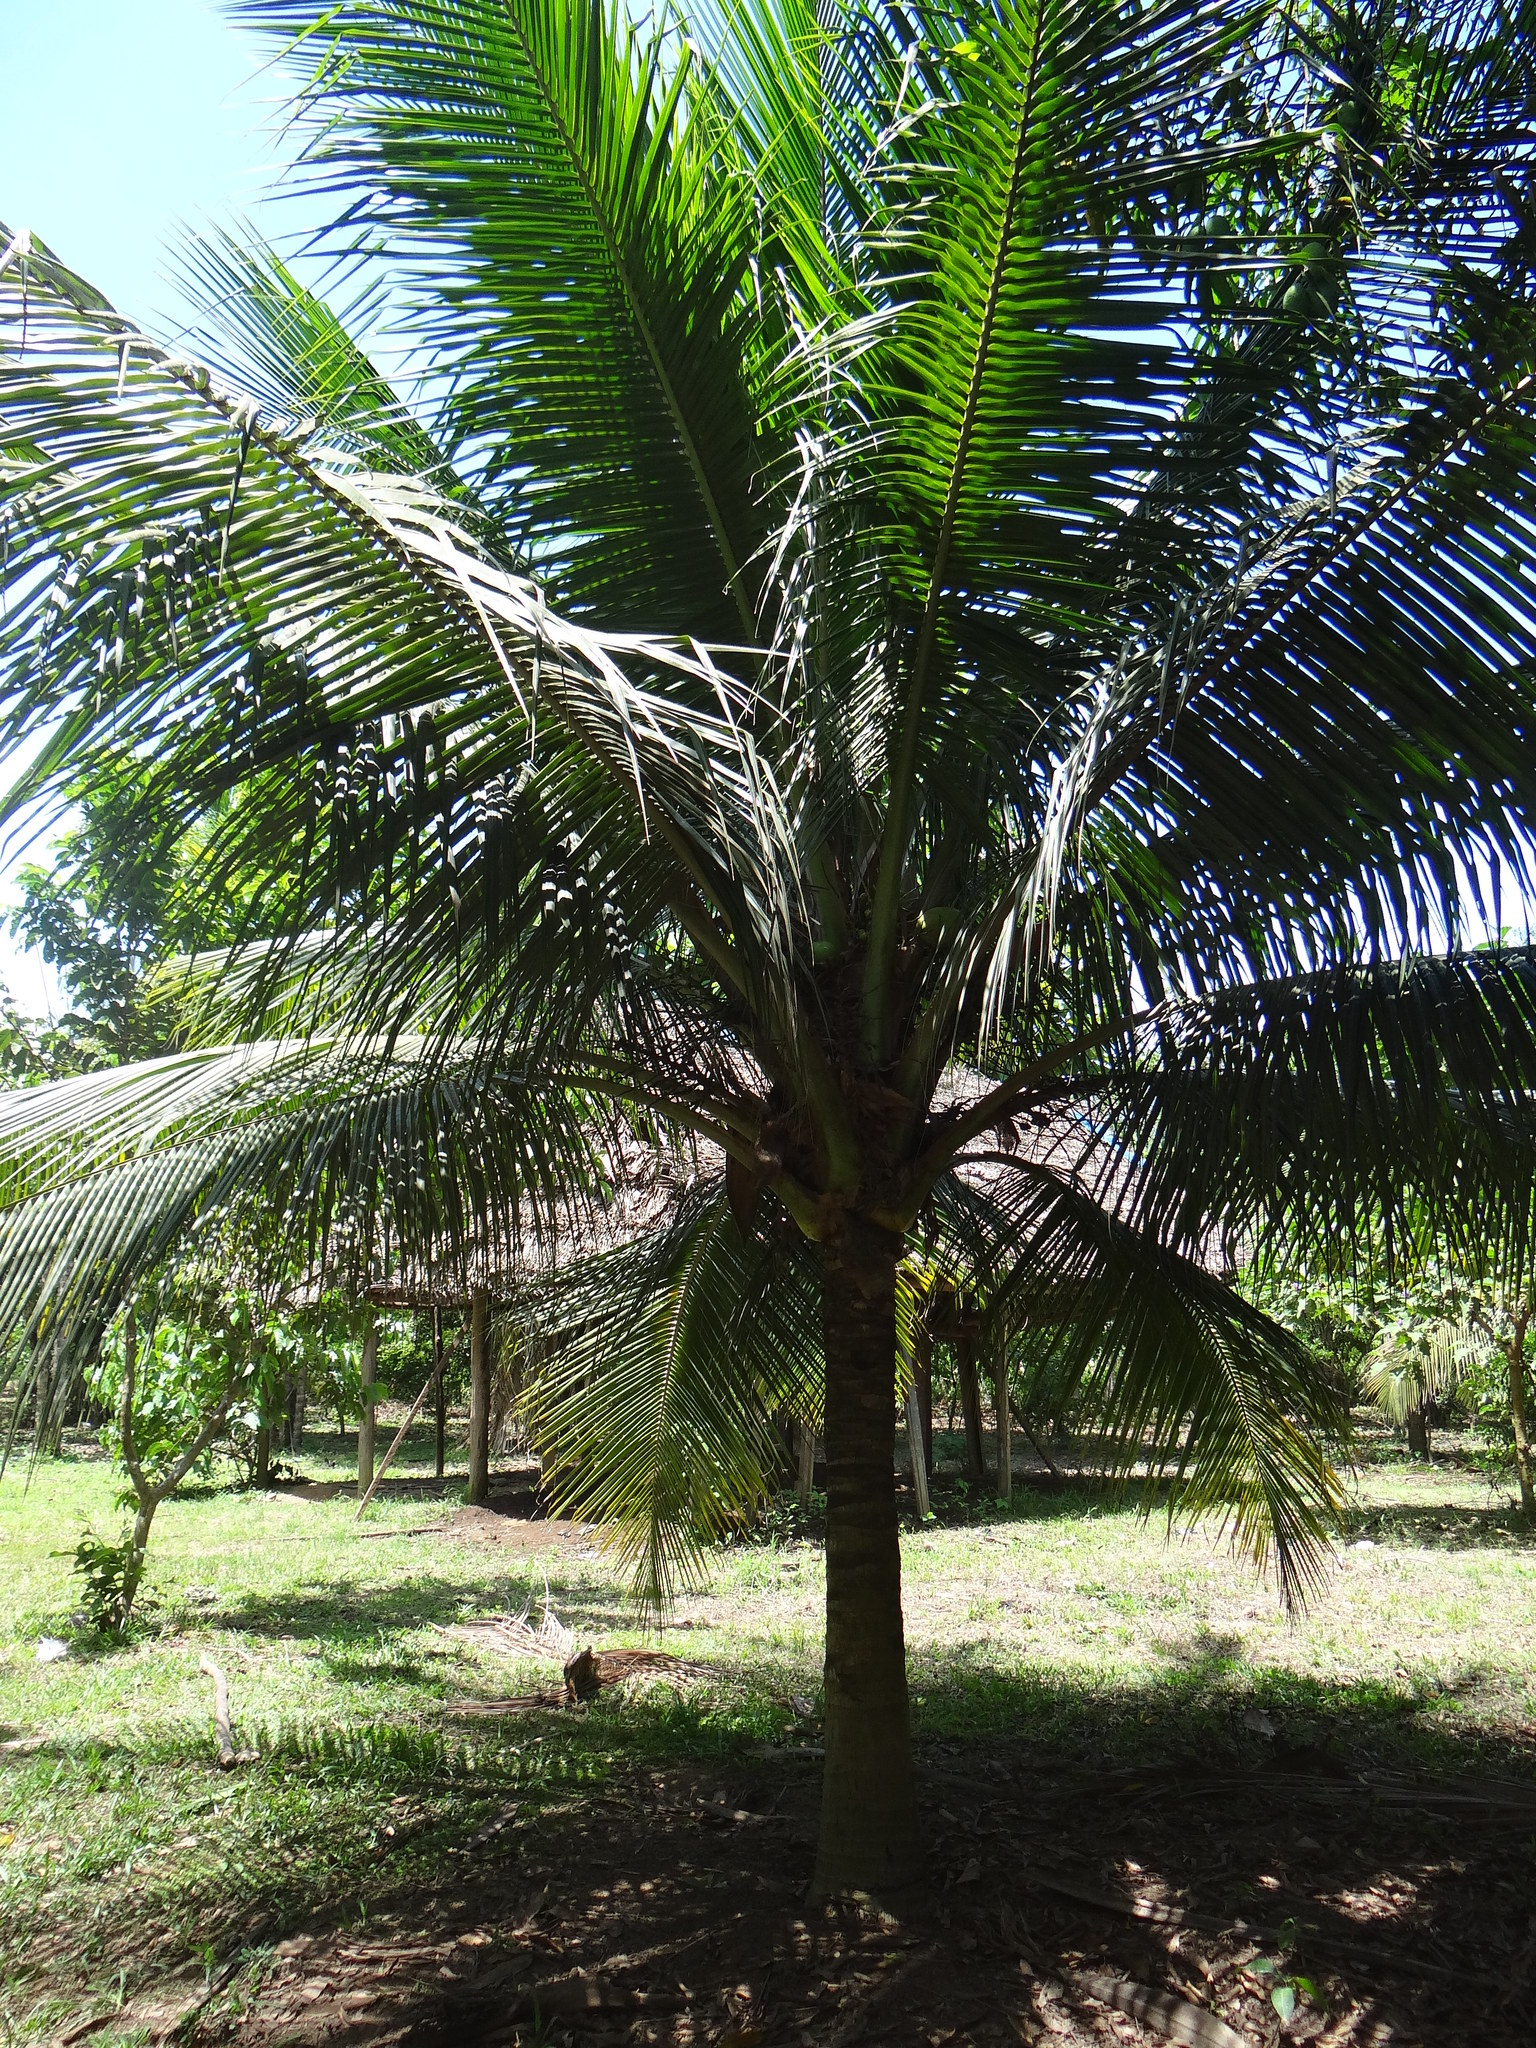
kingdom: Plantae
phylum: Tracheophyta
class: Liliopsida
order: Arecales
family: Arecaceae
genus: Cocos
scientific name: Cocos nucifera
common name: Coconut palm
